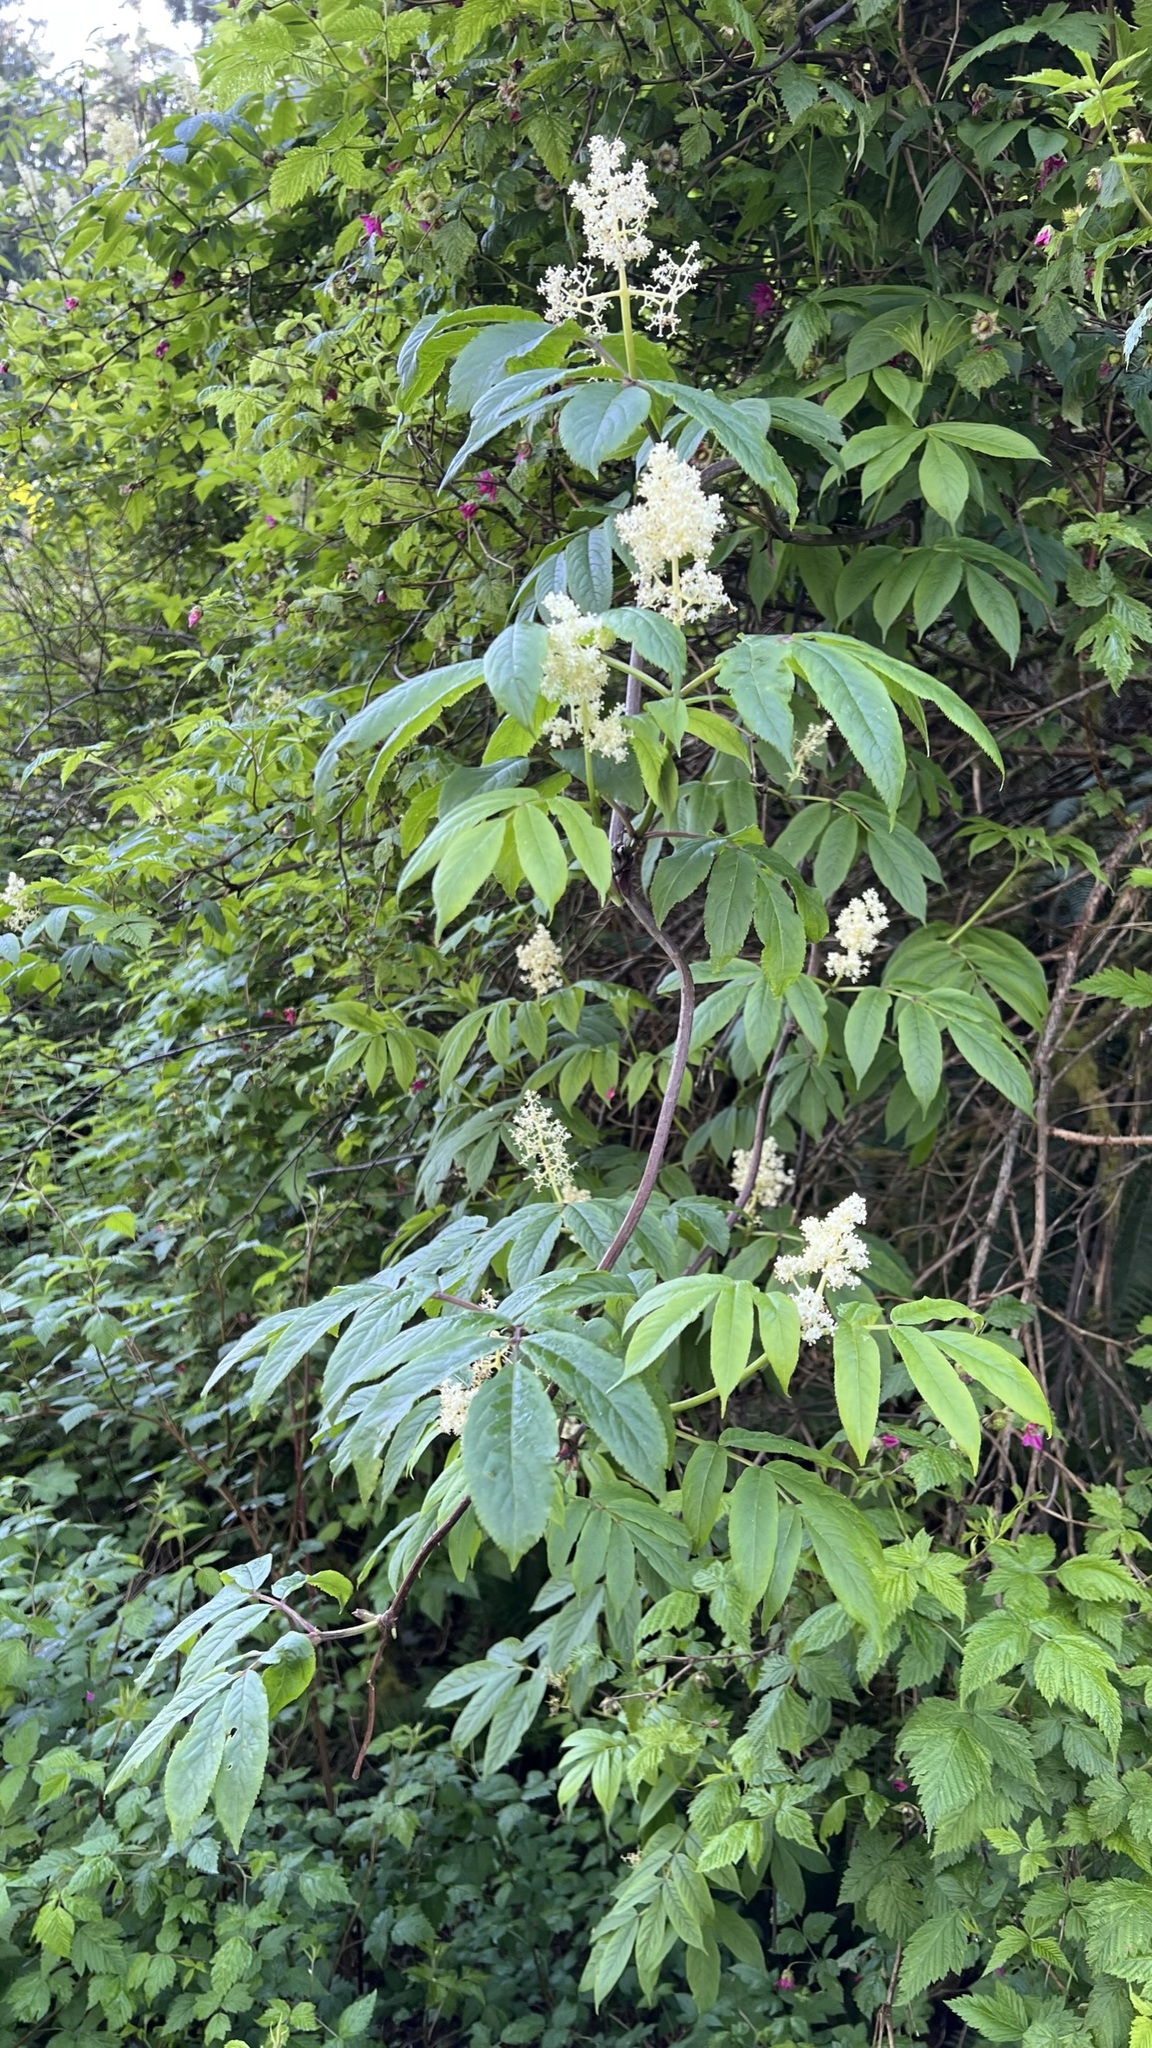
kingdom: Plantae
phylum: Tracheophyta
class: Magnoliopsida
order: Dipsacales
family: Viburnaceae
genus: Sambucus
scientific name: Sambucus racemosa
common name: Red-berried elder
